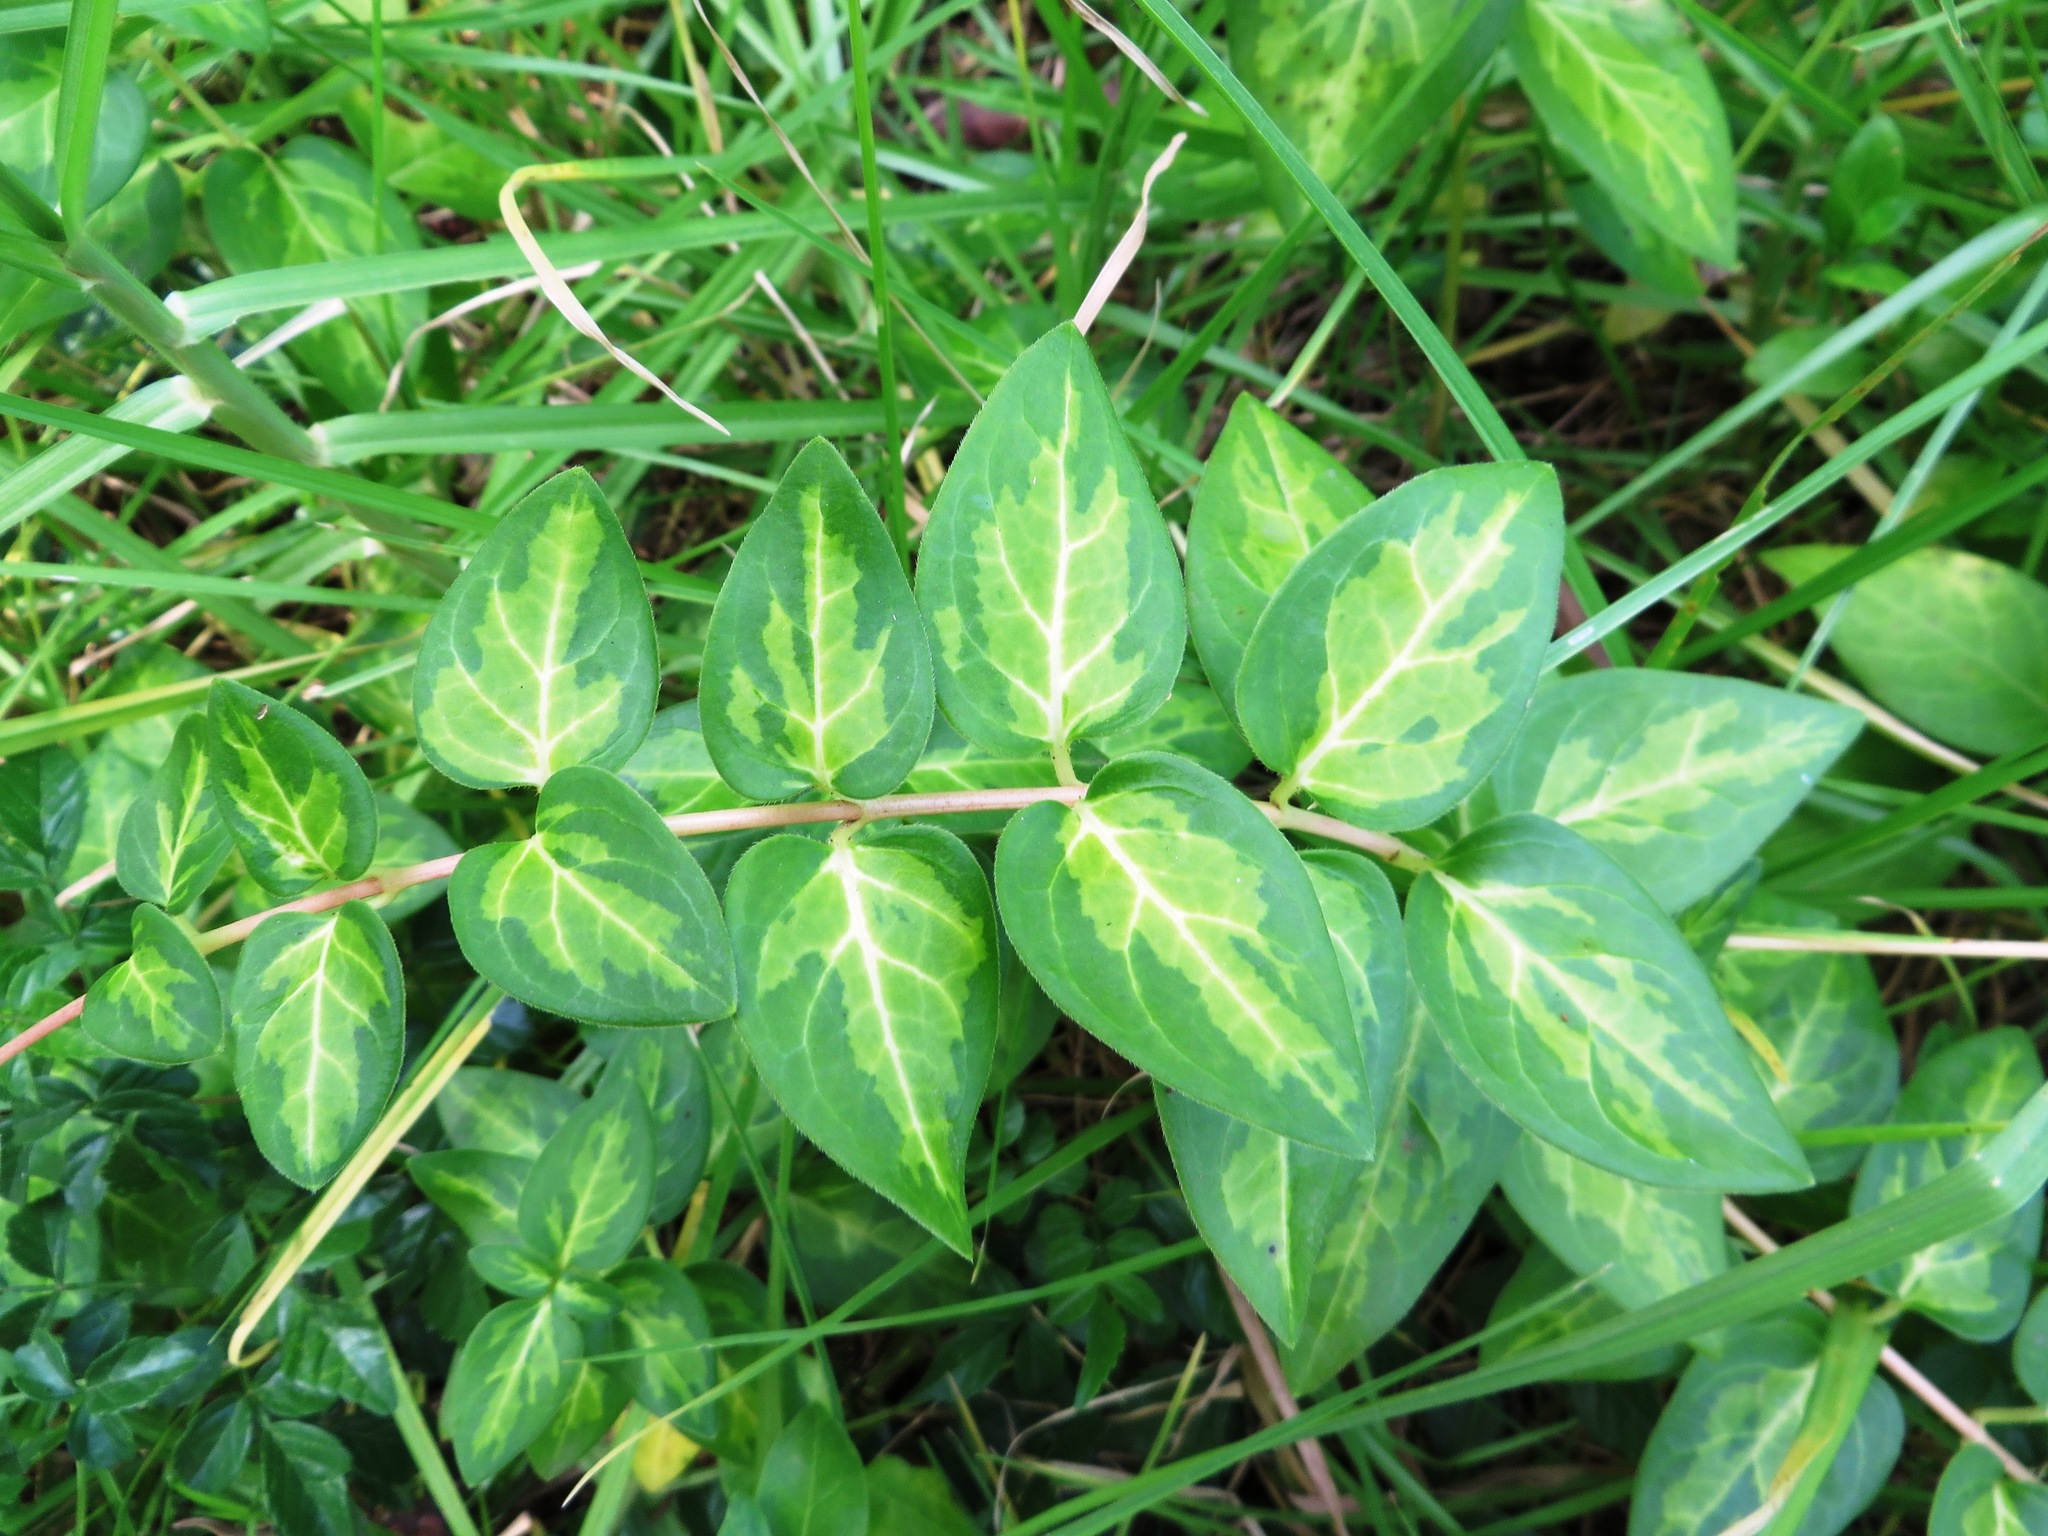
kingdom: Plantae
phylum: Tracheophyta
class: Magnoliopsida
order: Gentianales
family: Apocynaceae
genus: Vinca
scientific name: Vinca major
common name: Greater periwinkle
